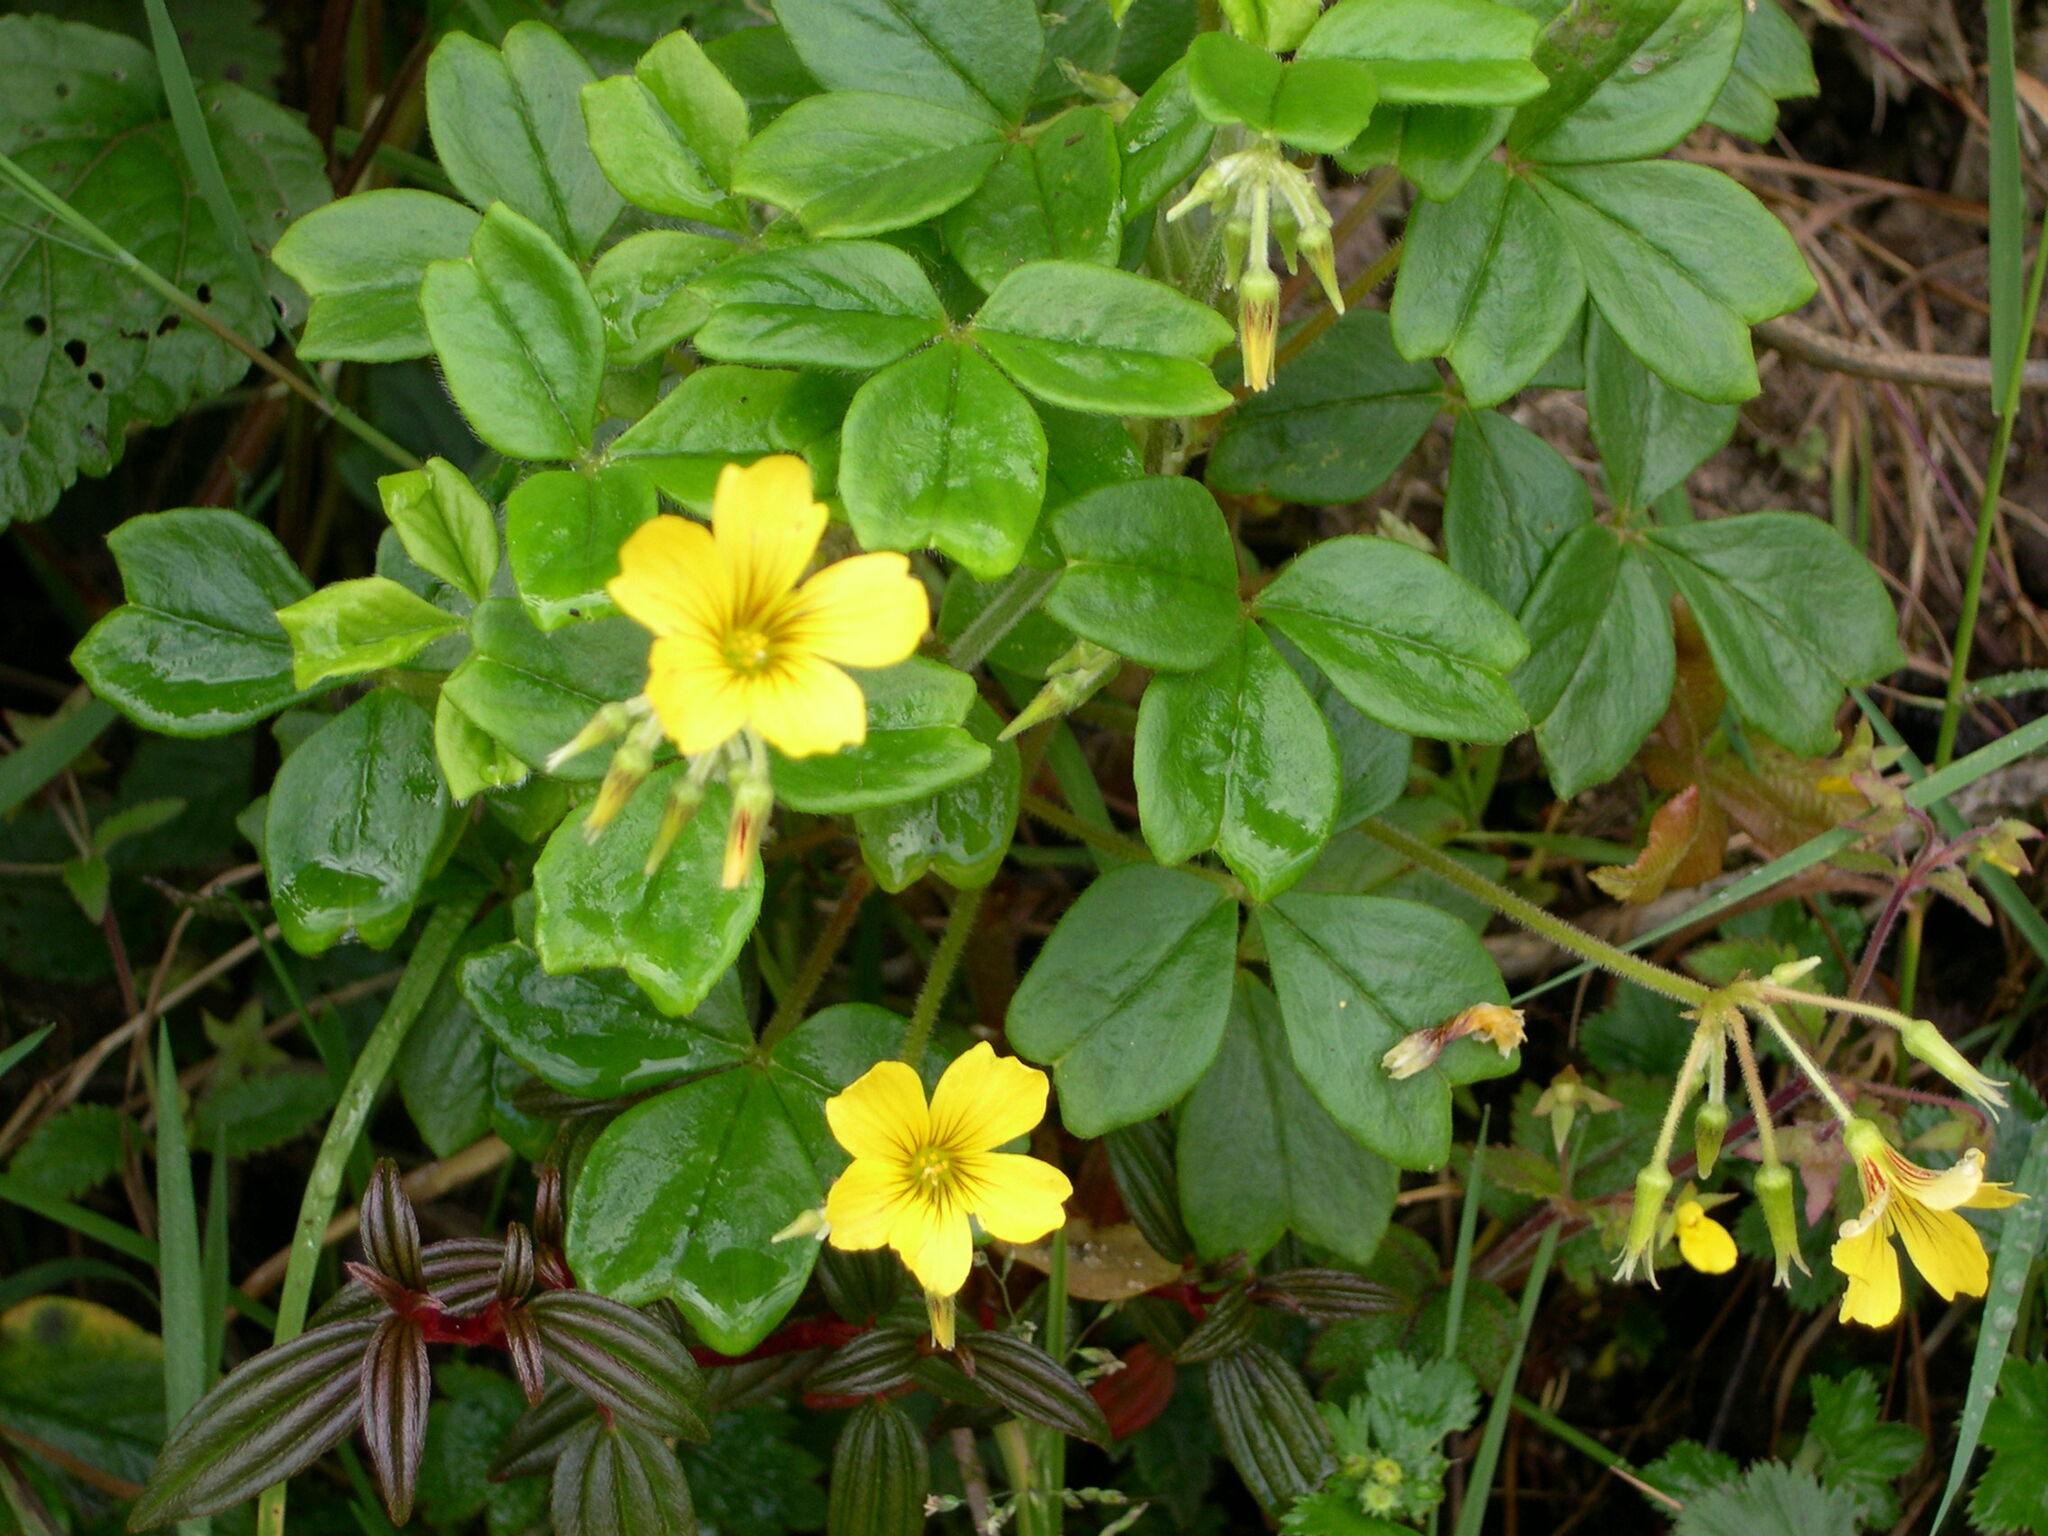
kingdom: Plantae
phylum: Tracheophyta
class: Magnoliopsida
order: Oxalidales
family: Oxalidaceae
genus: Oxalis
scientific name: Oxalis spiralis
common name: Spiral sorrel
